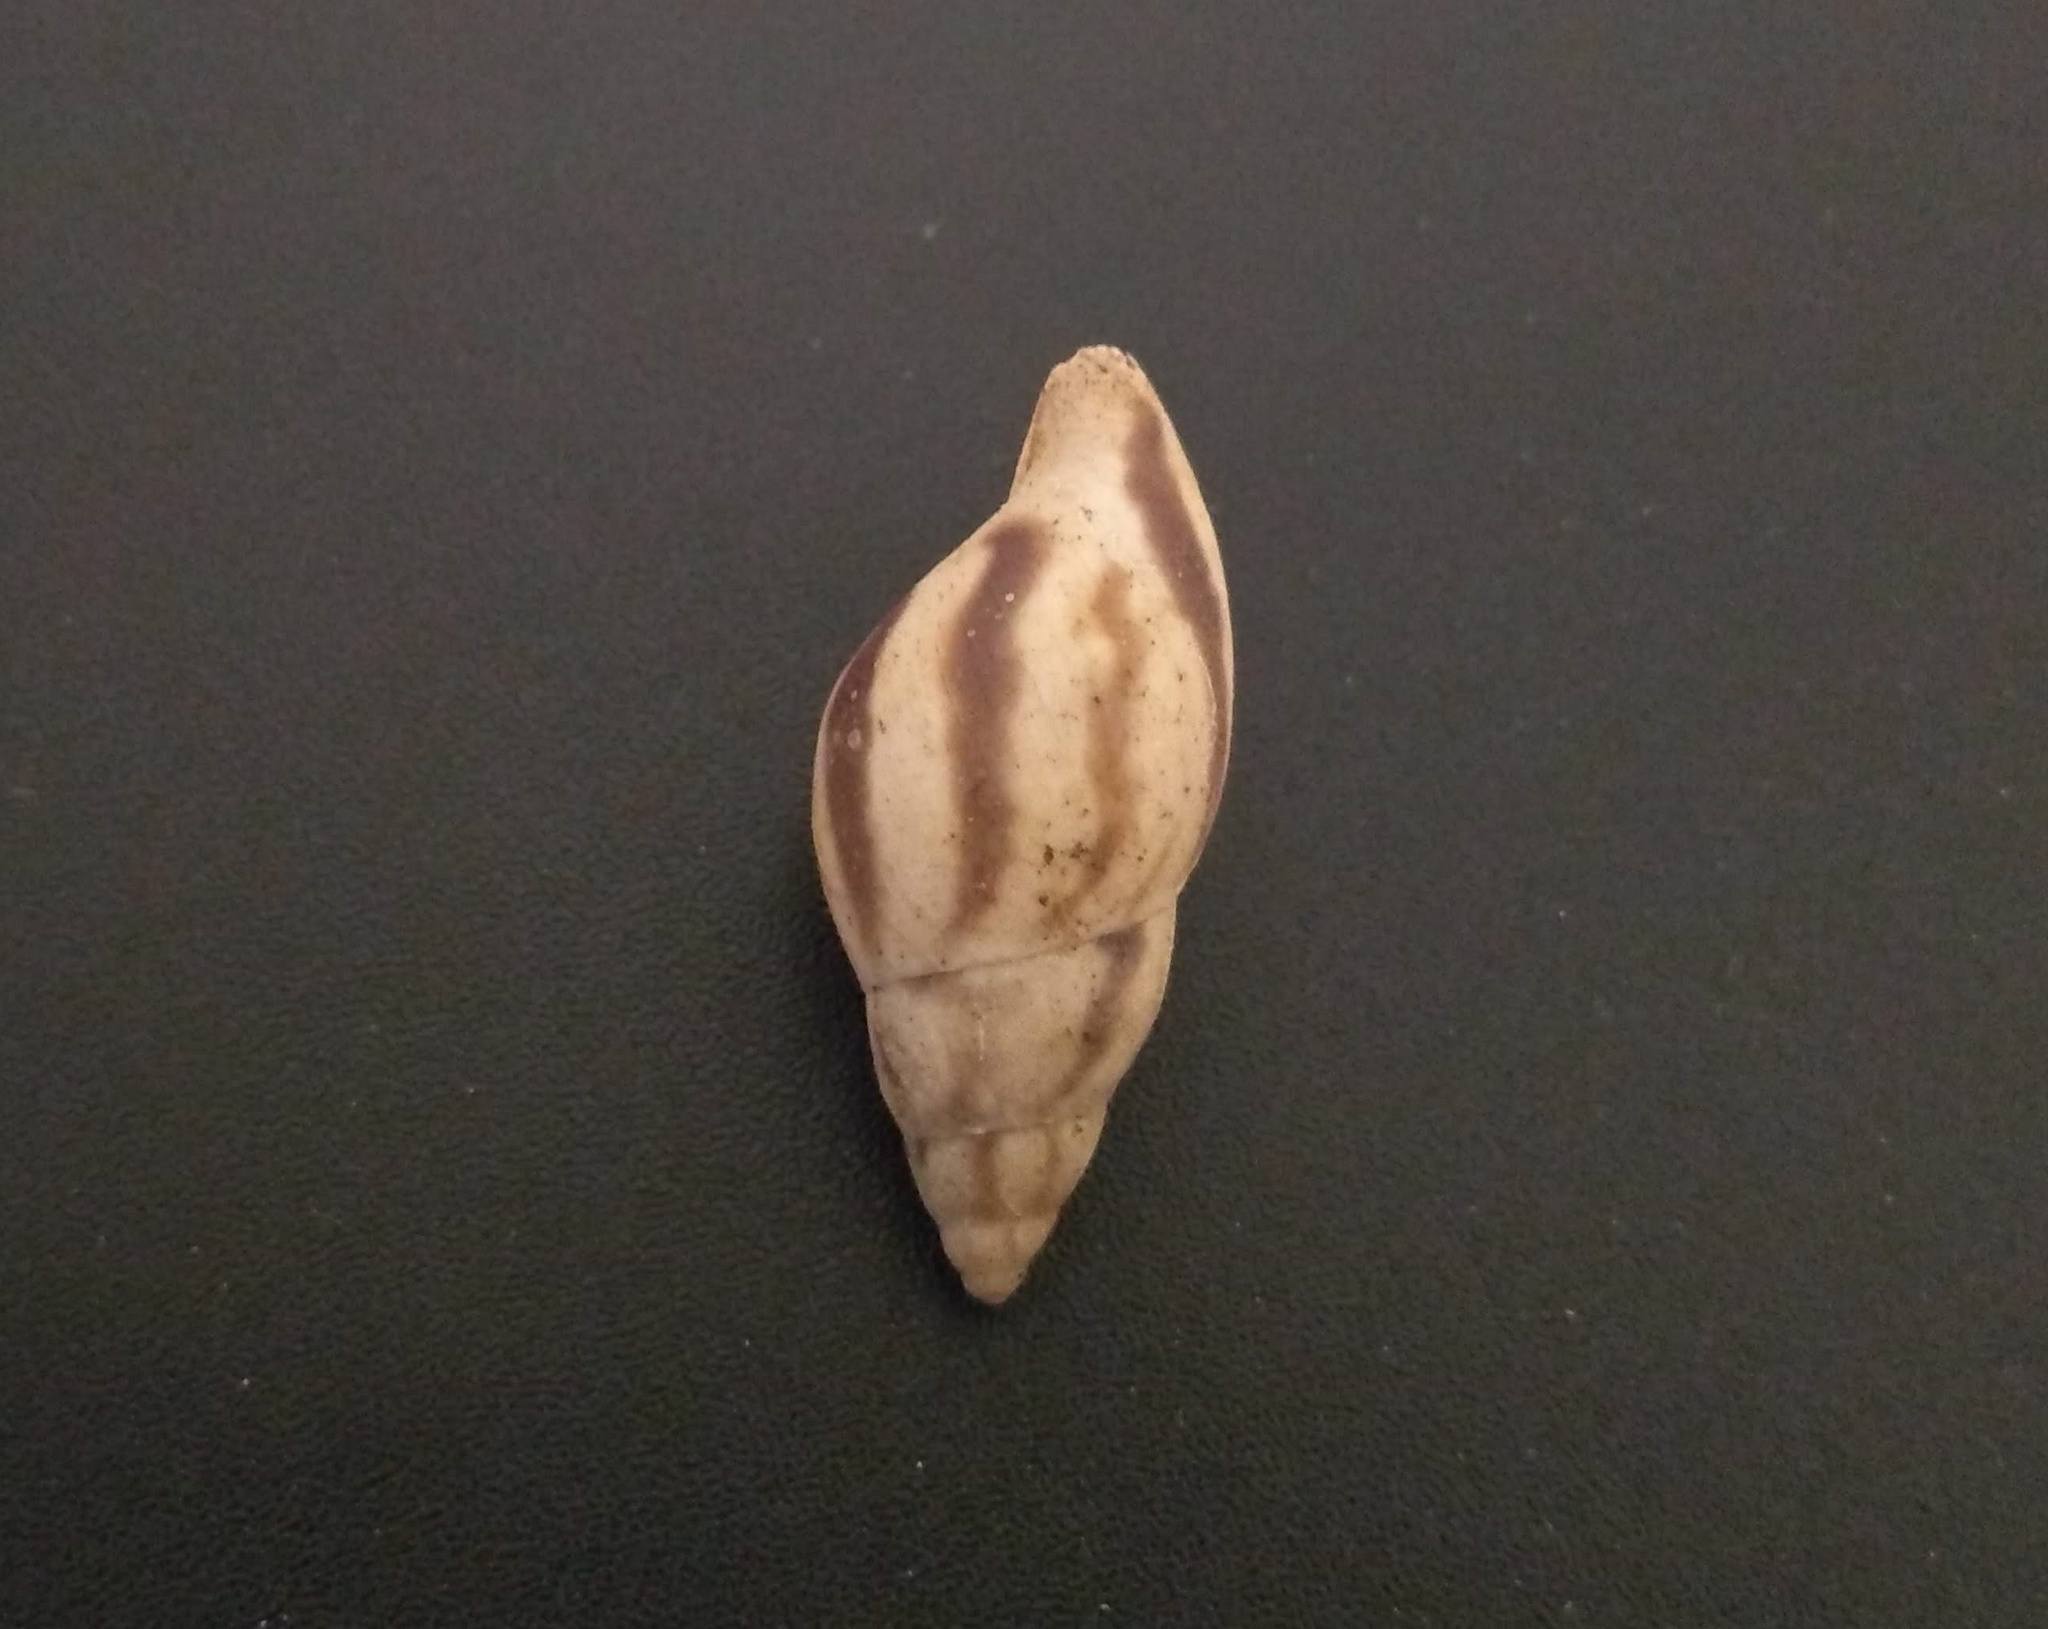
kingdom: Animalia
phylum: Mollusca
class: Gastropoda
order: Stylommatophora
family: Bulimulidae
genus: Drymaeus
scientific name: Drymaeus germaini
